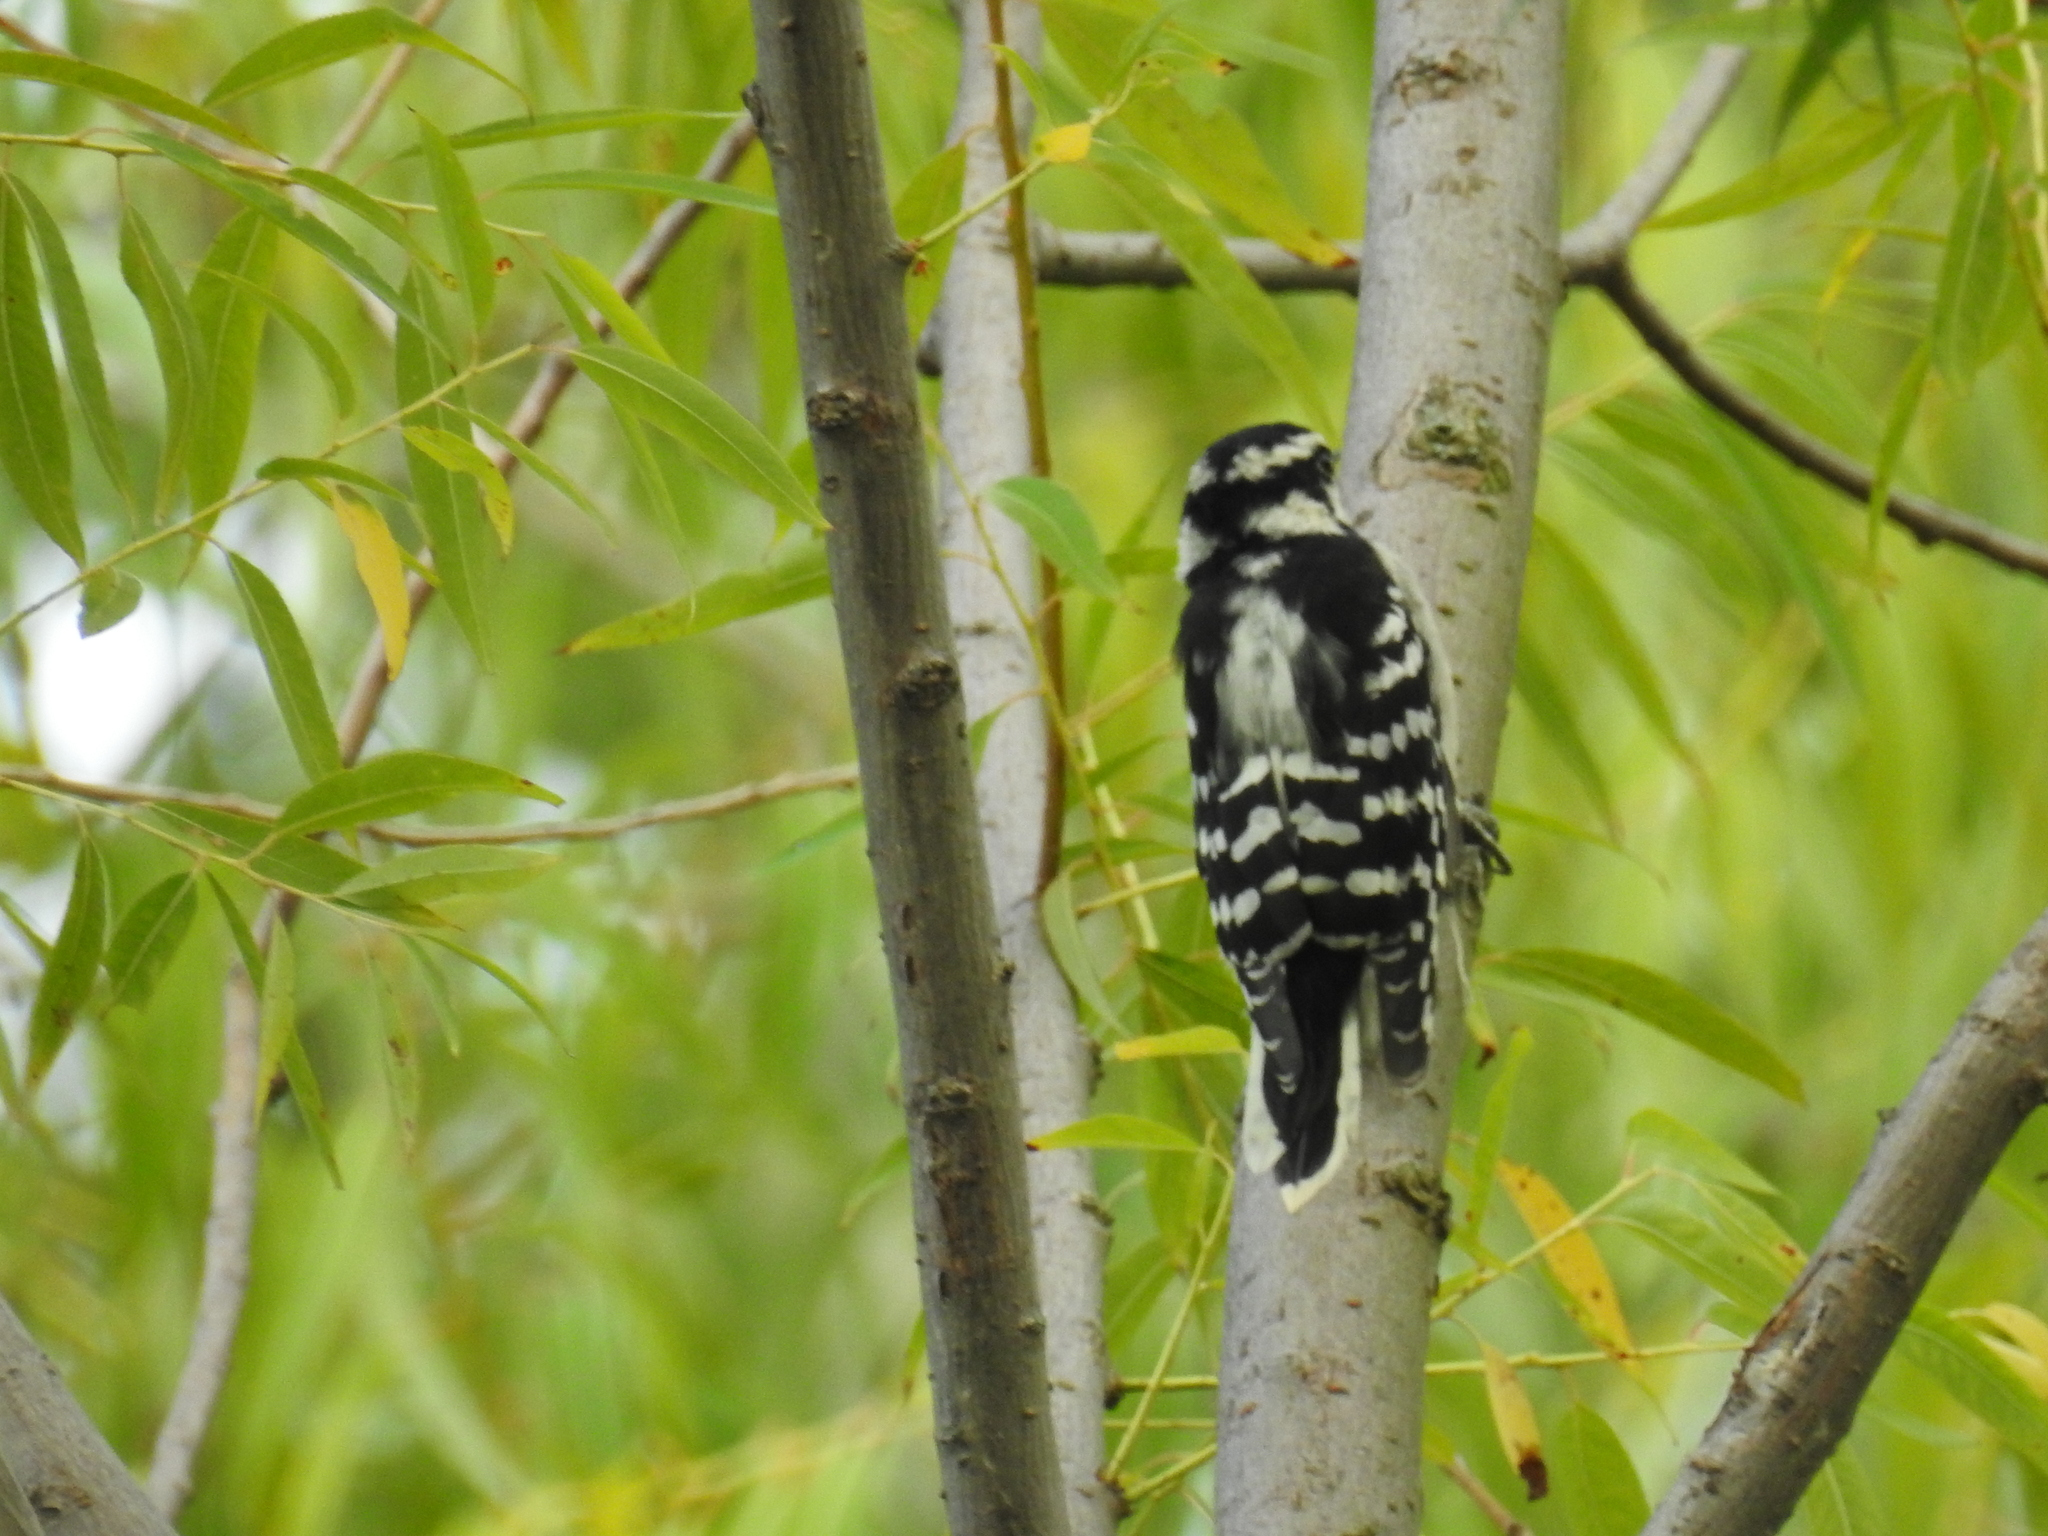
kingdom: Animalia
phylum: Chordata
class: Aves
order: Piciformes
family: Picidae
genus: Dryobates
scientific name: Dryobates pubescens
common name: Downy woodpecker
